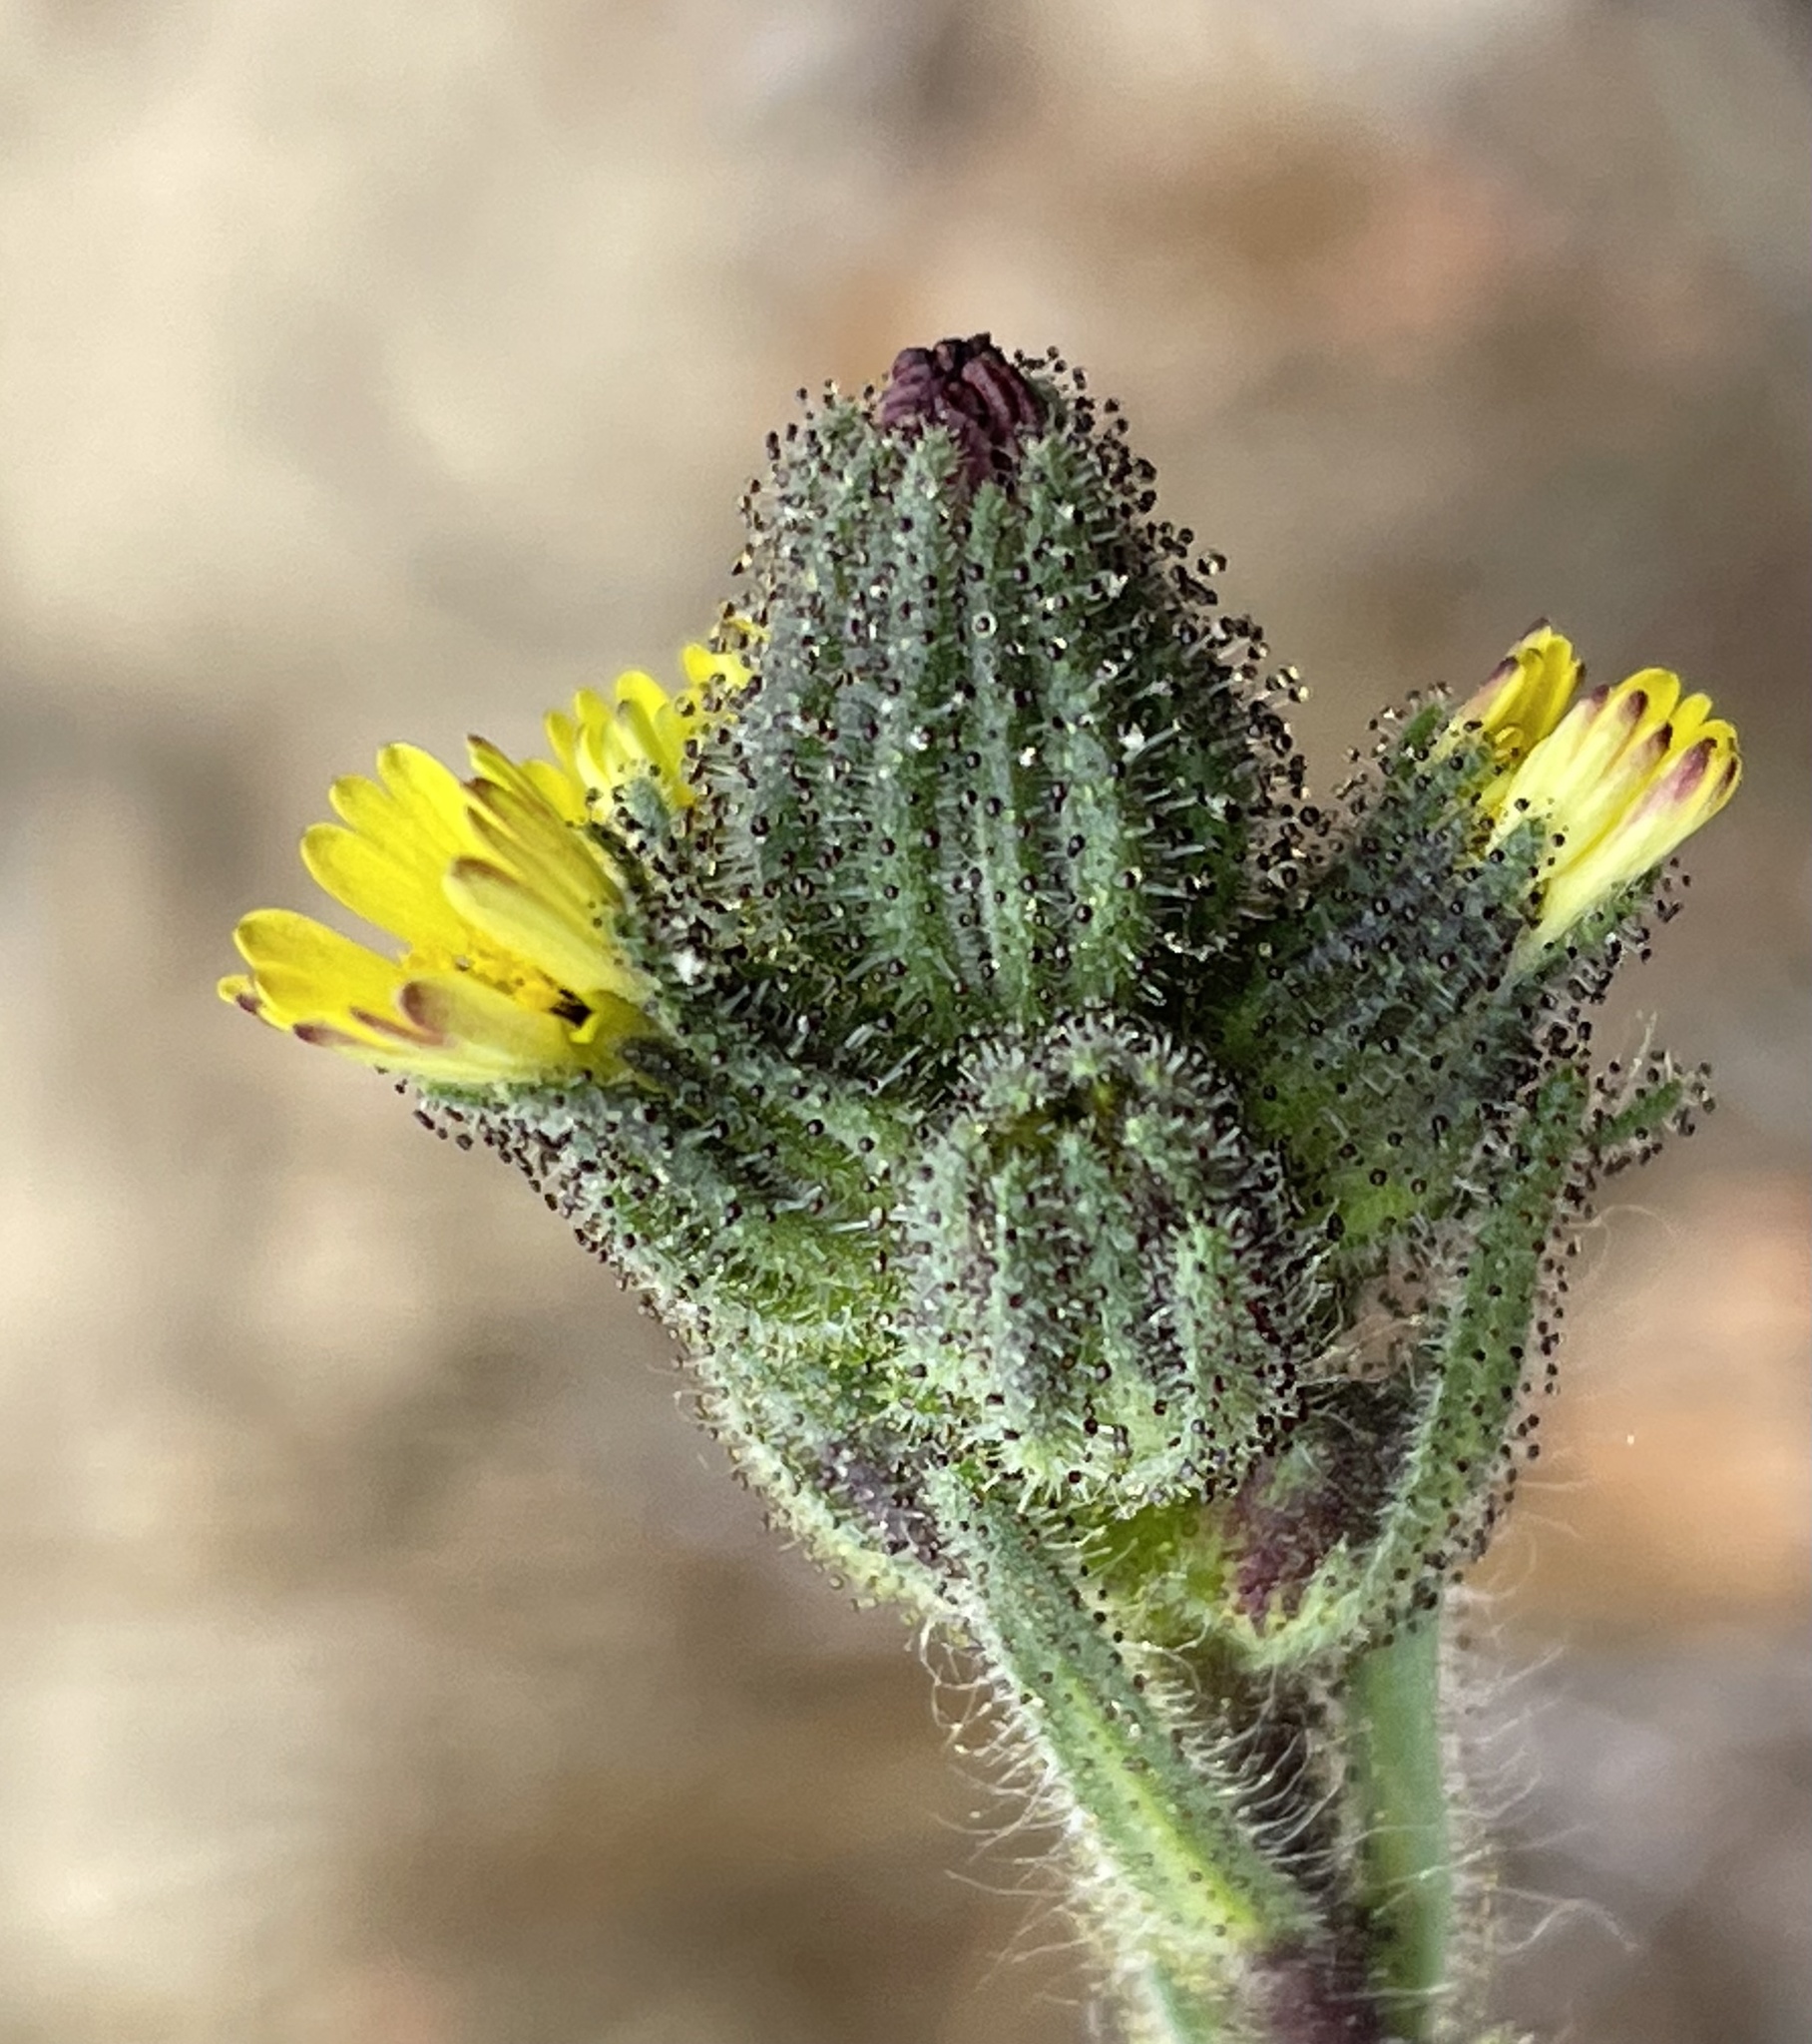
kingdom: Plantae
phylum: Tracheophyta
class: Magnoliopsida
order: Asterales
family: Asteraceae
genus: Madia
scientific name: Madia sativa
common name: Coast tarweed
